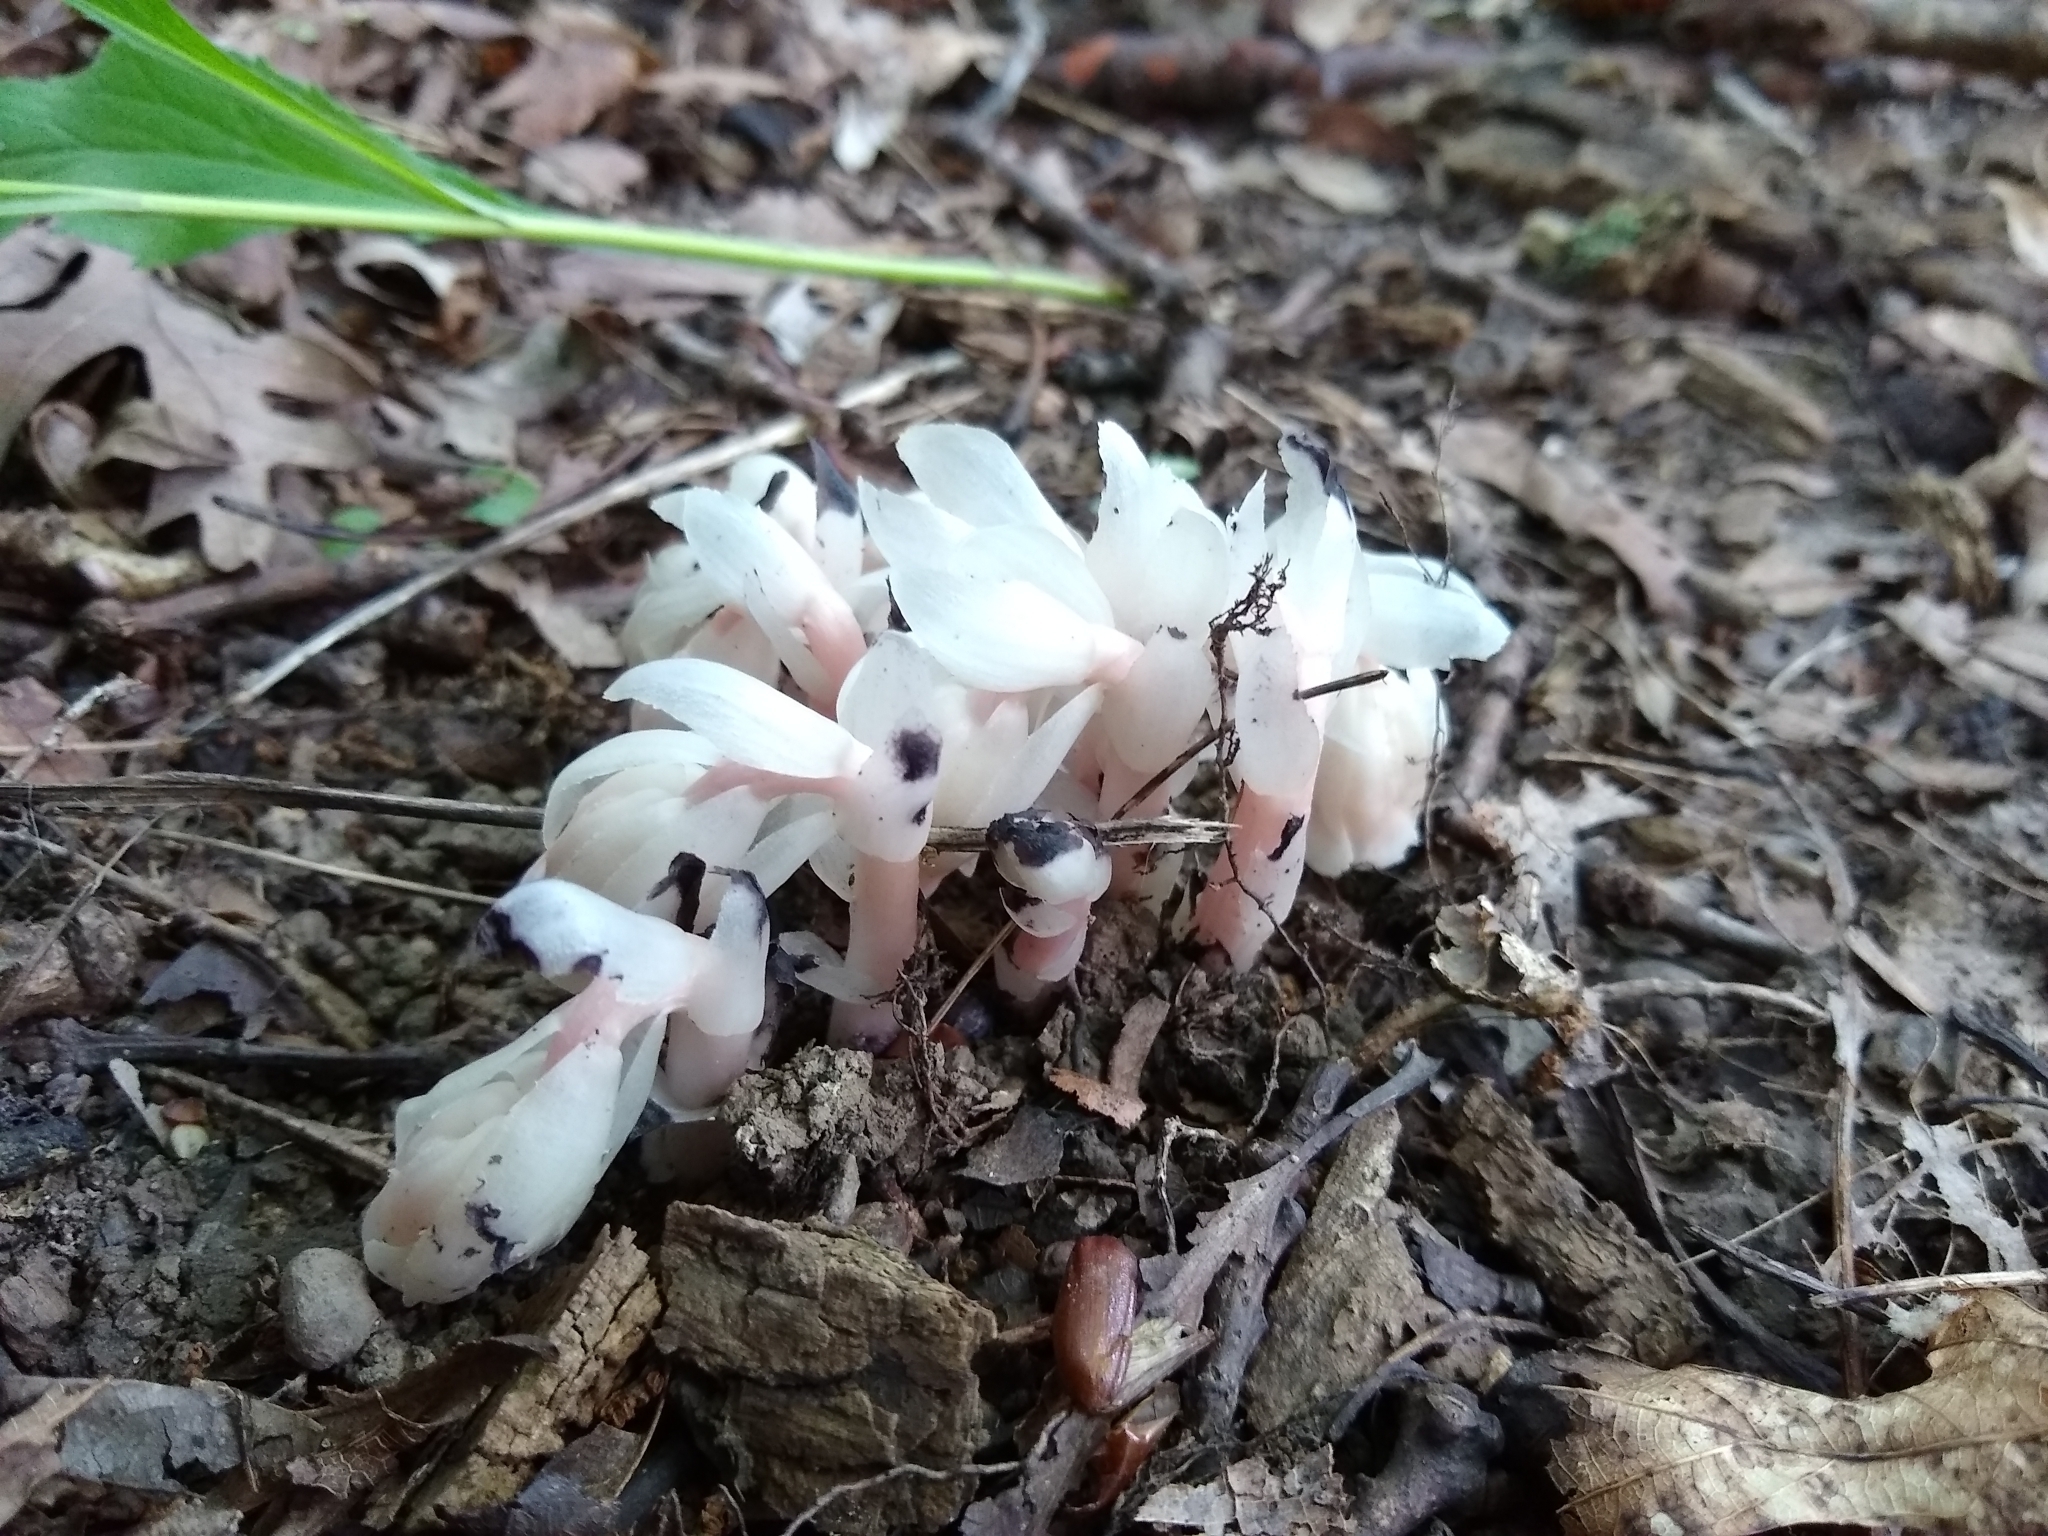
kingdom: Plantae
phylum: Tracheophyta
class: Magnoliopsida
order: Ericales
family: Ericaceae
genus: Monotropa
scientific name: Monotropa uniflora
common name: Convulsion root
